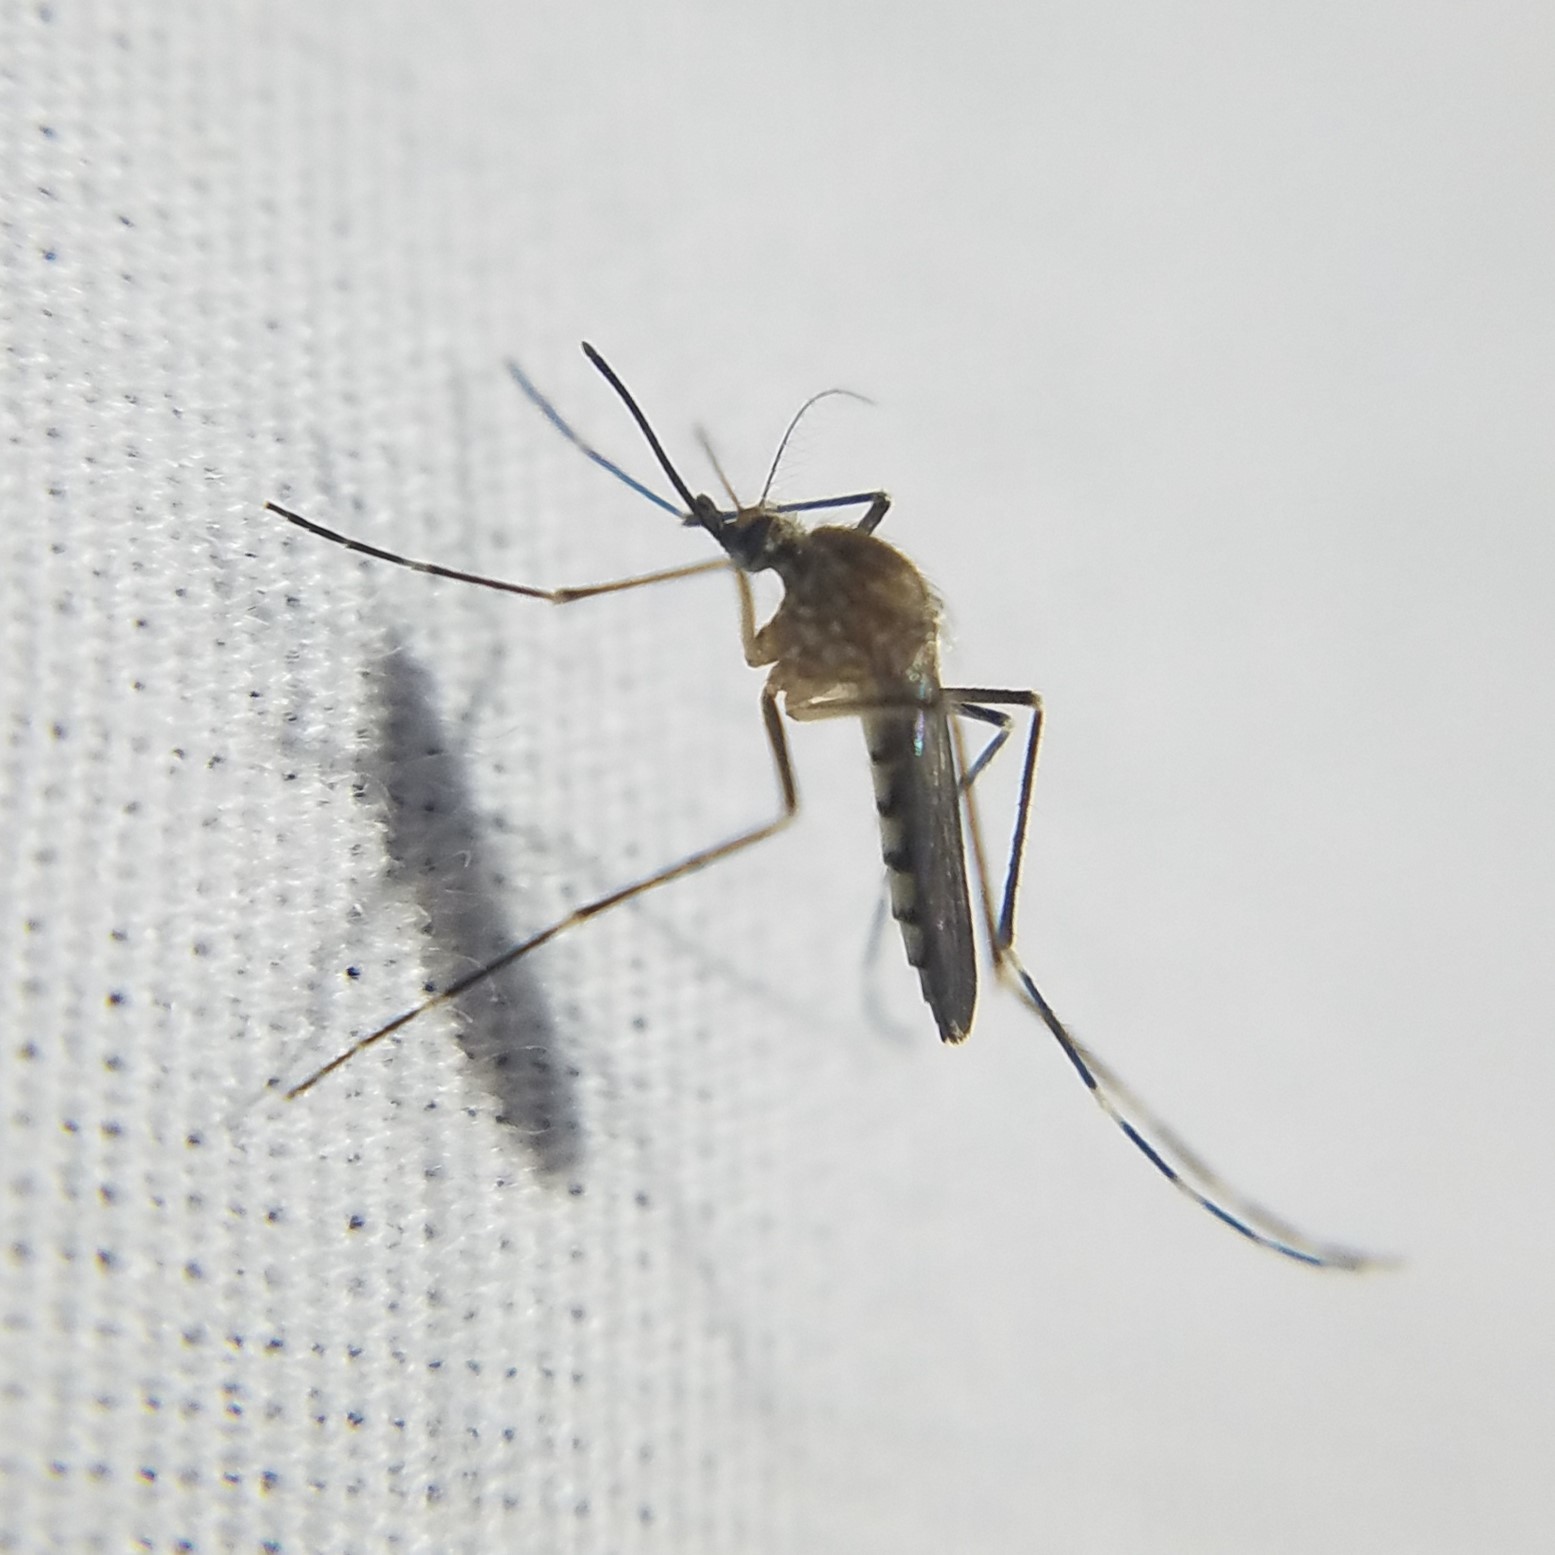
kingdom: Animalia
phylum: Arthropoda
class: Insecta
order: Diptera
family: Culicidae
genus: Aedes
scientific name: Aedes canadensis
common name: Woodland pool mosquito
